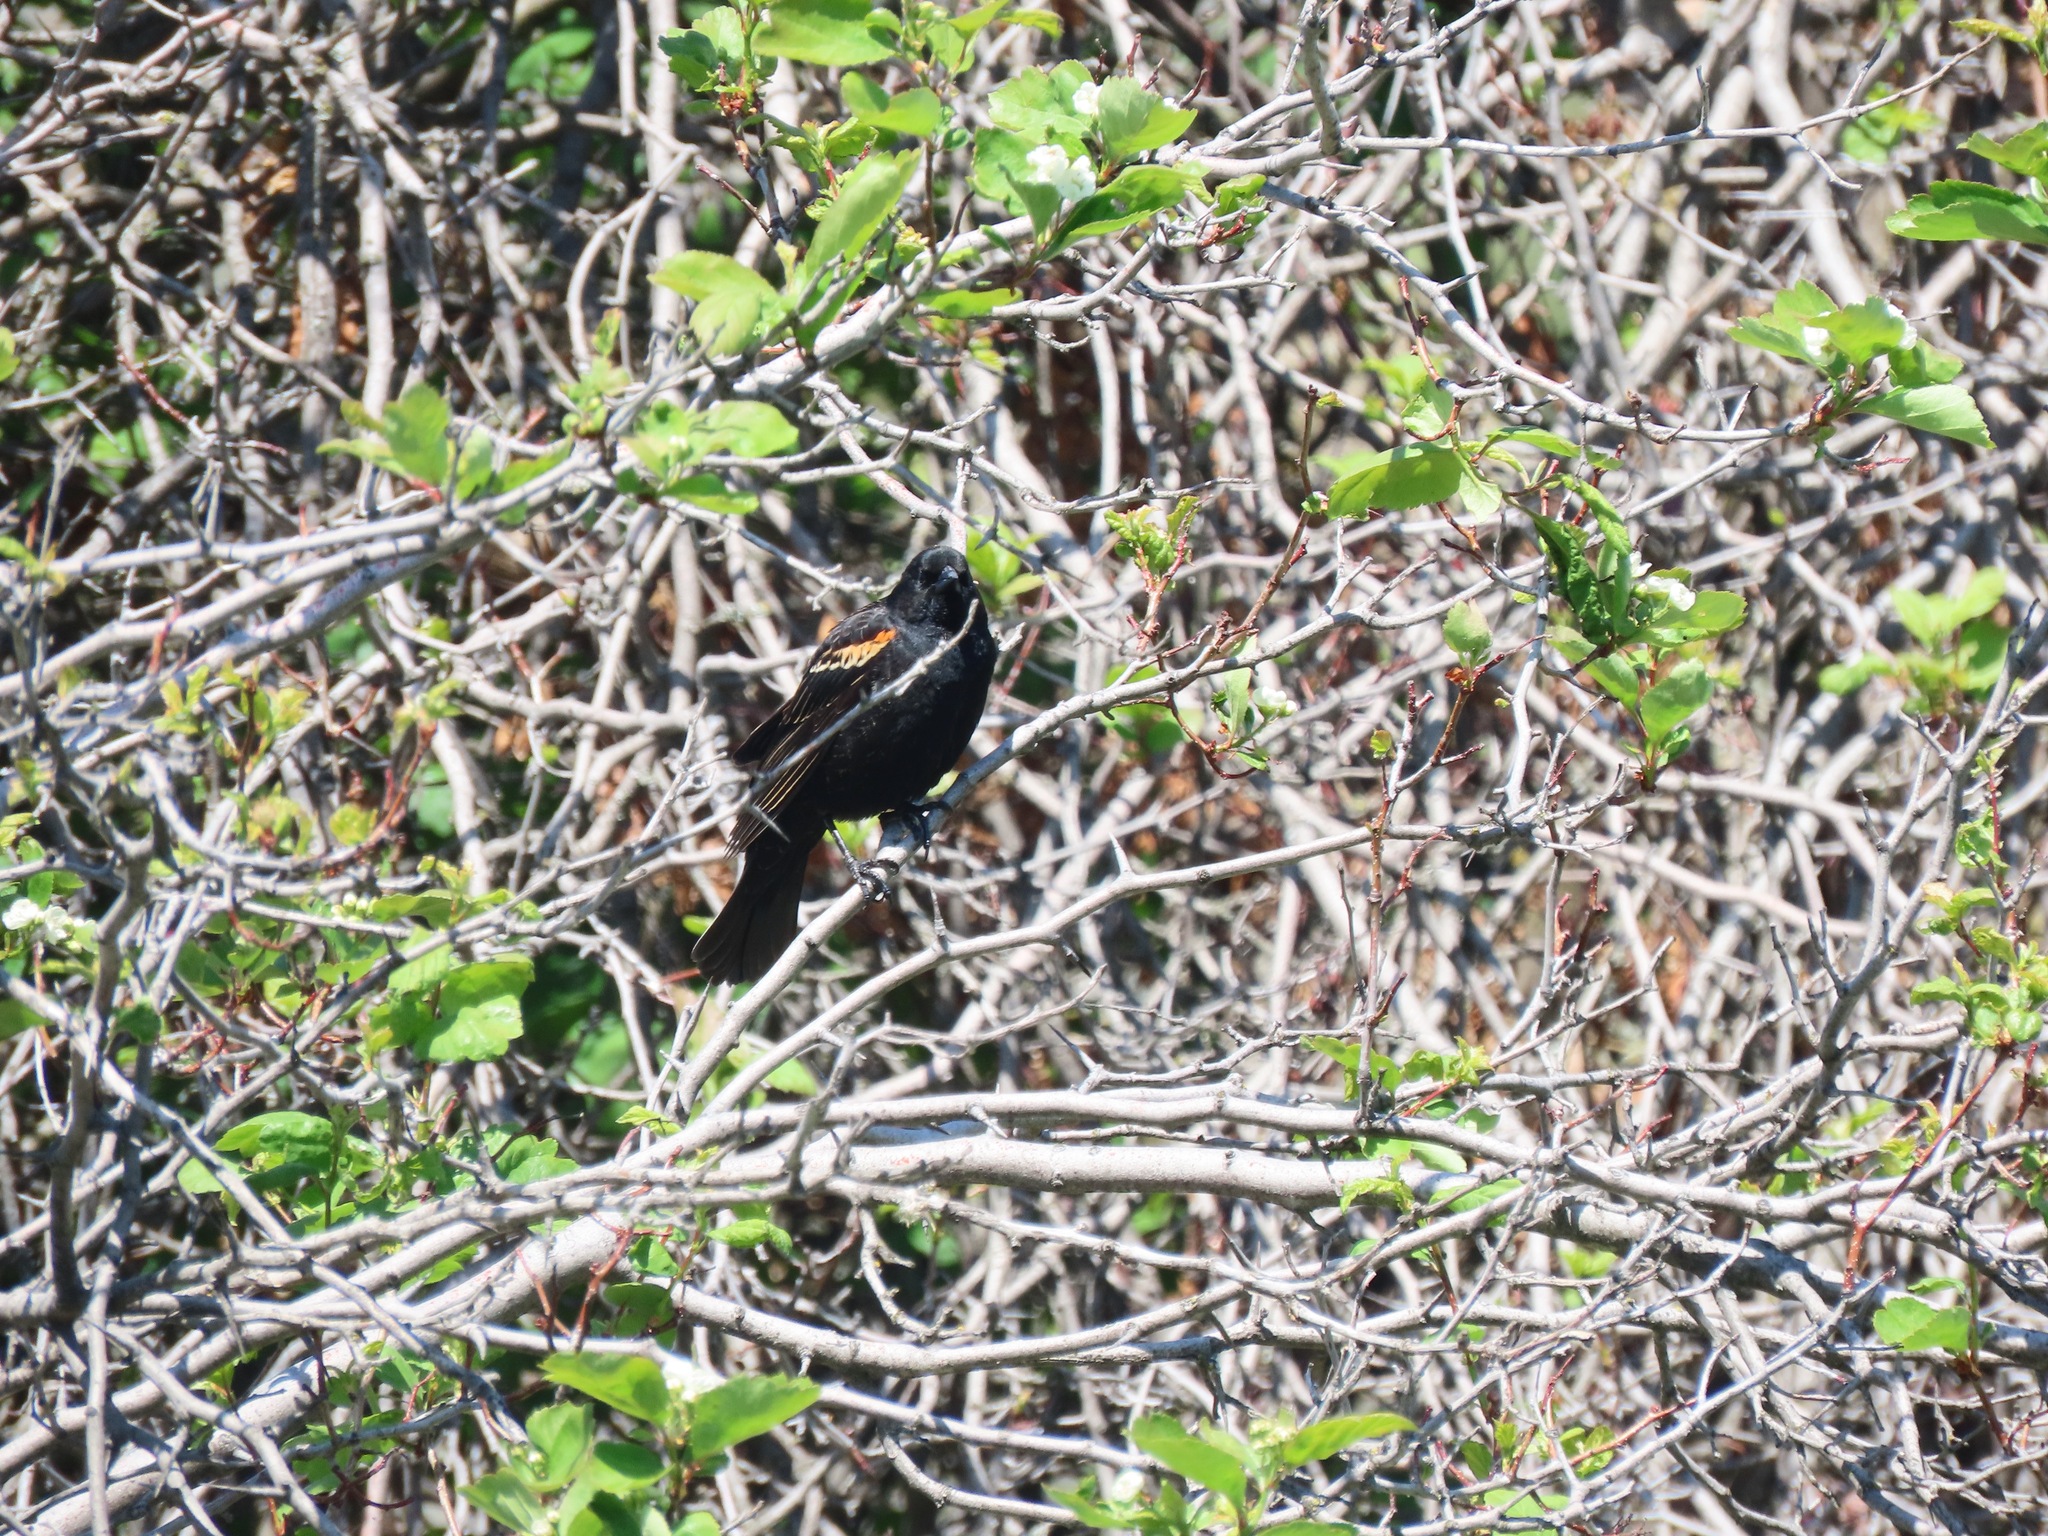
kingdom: Animalia
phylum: Chordata
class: Aves
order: Passeriformes
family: Icteridae
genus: Agelaius
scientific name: Agelaius phoeniceus
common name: Red-winged blackbird
